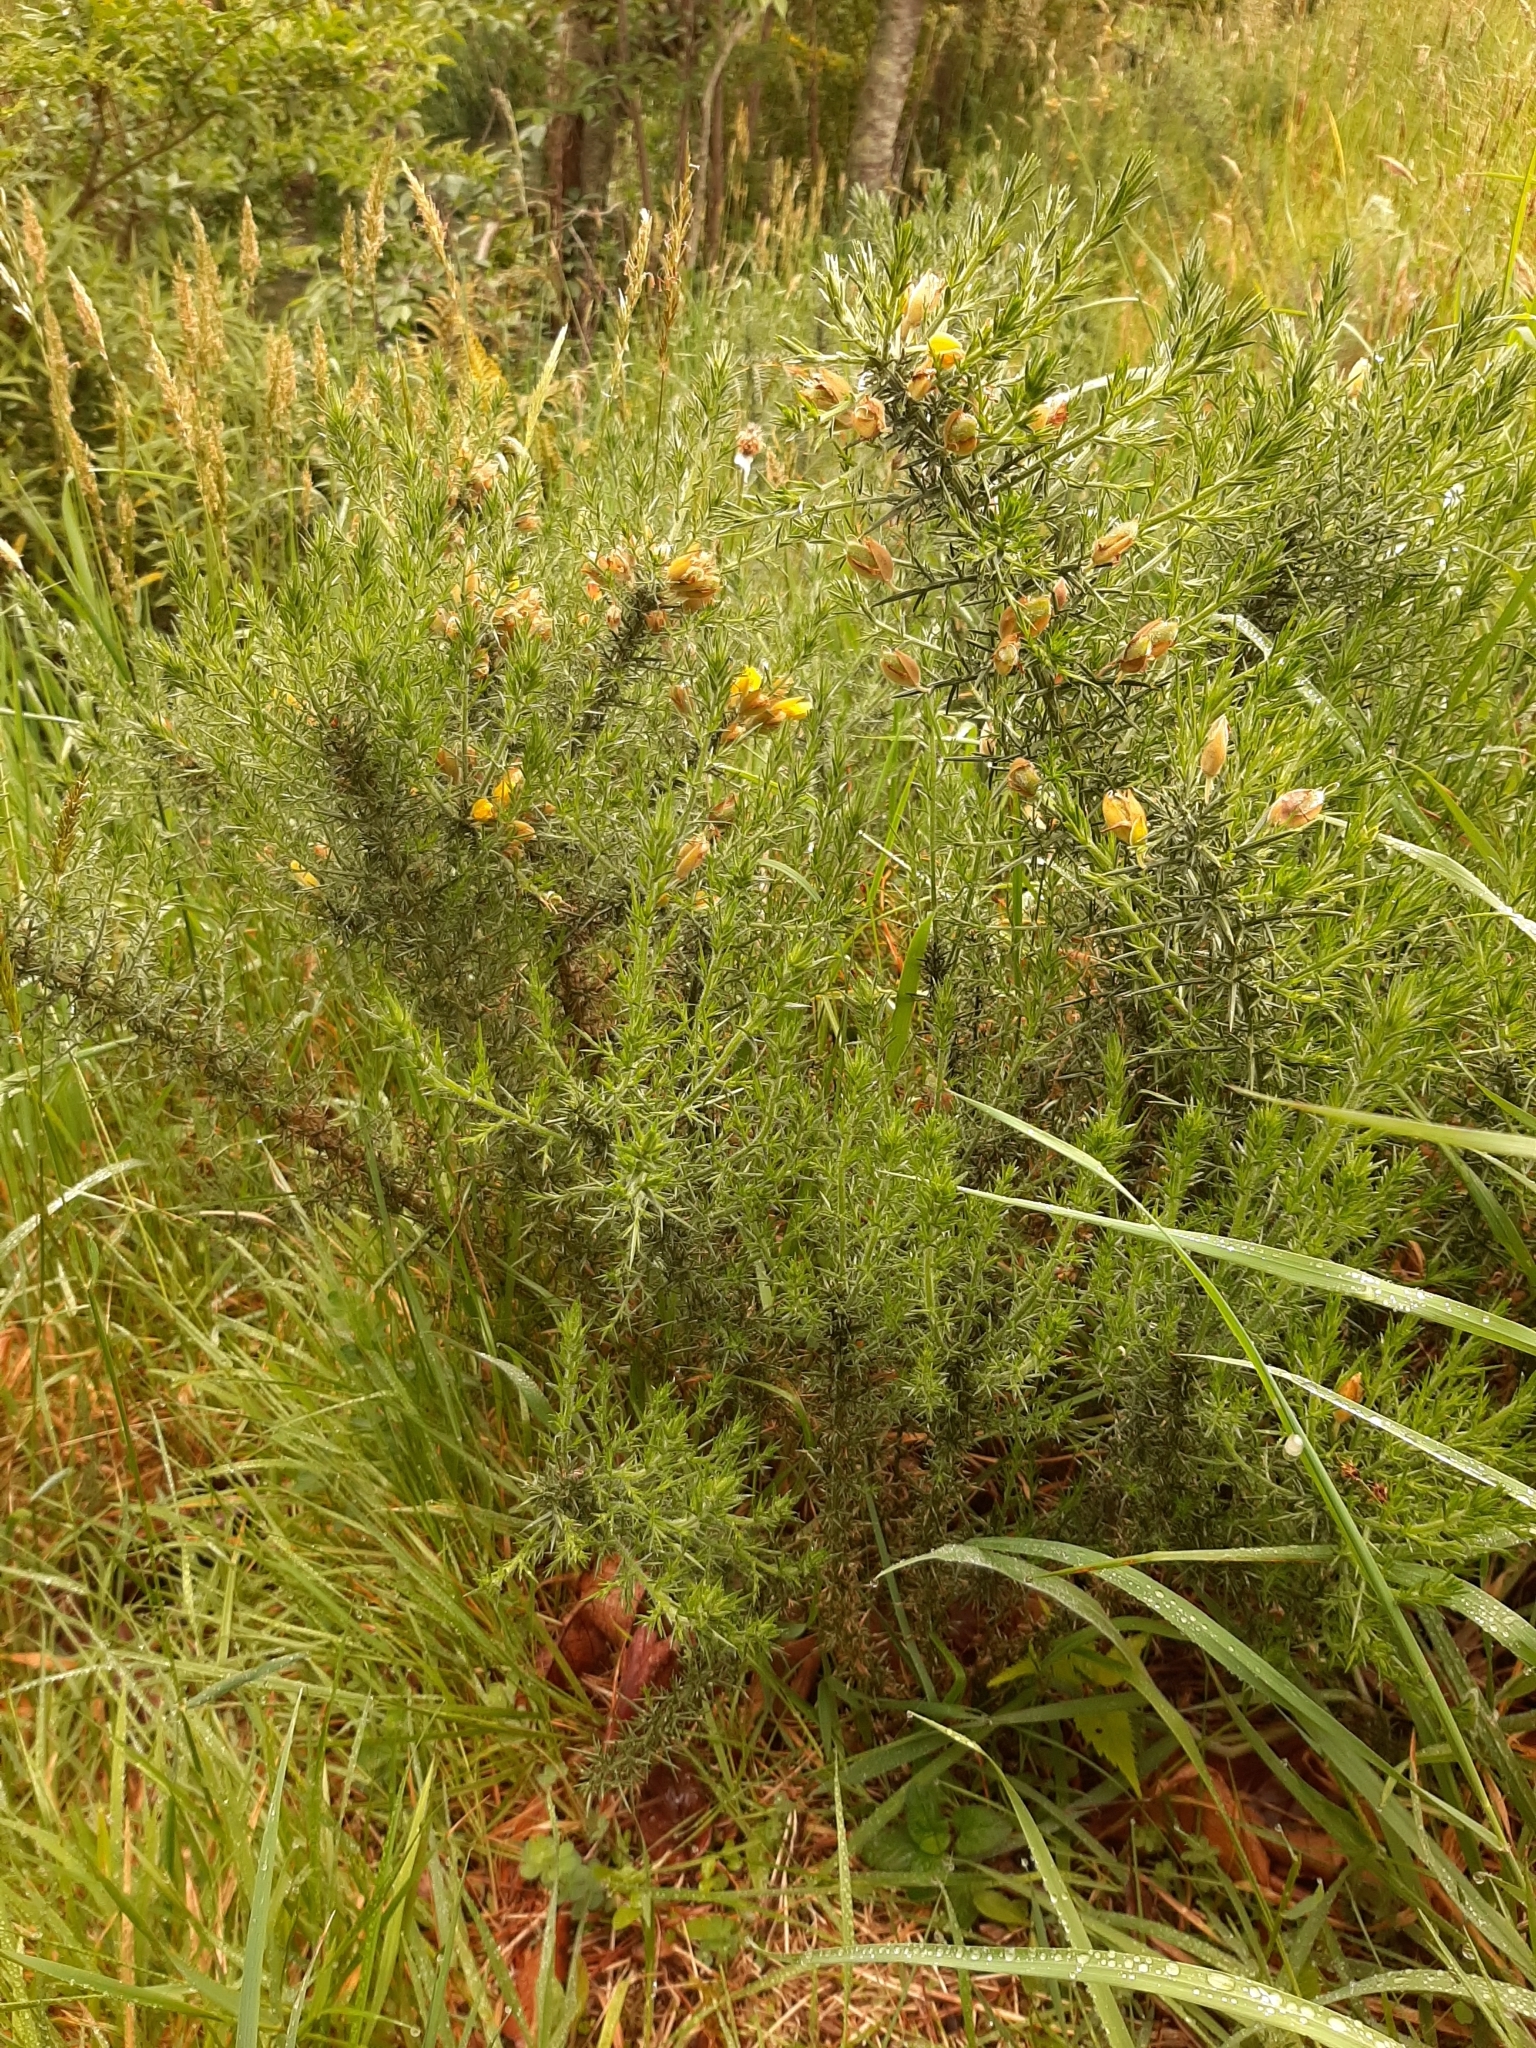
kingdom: Plantae
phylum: Tracheophyta
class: Magnoliopsida
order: Fabales
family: Fabaceae
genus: Ulex
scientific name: Ulex europaeus
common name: Common gorse
